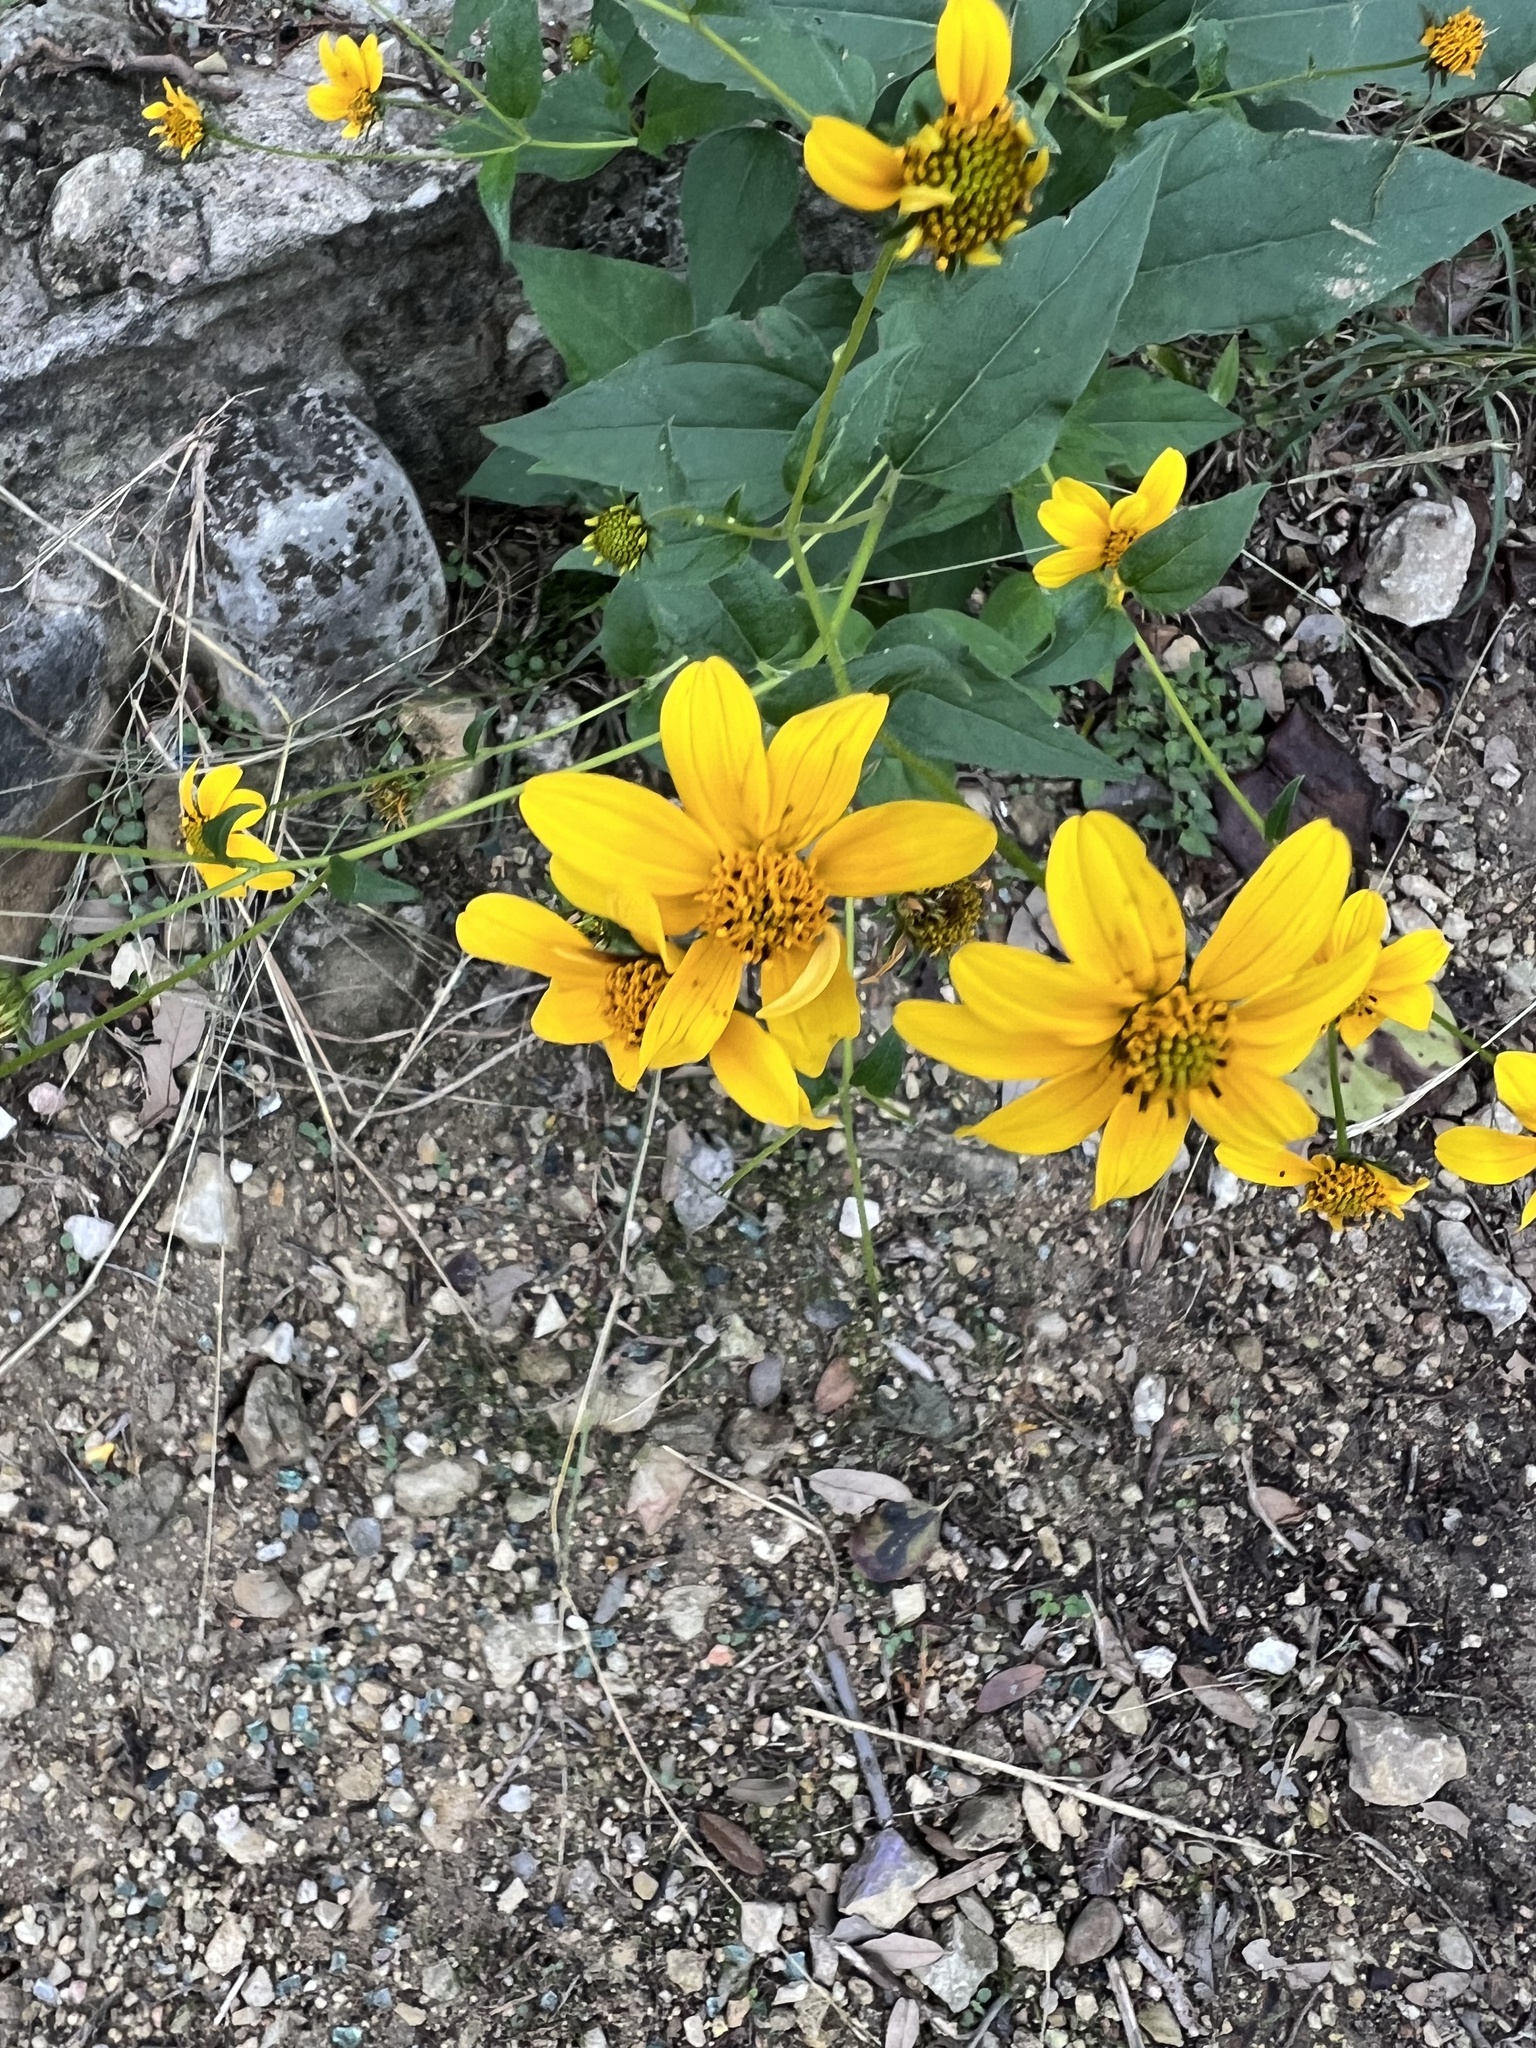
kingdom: Plantae
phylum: Tracheophyta
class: Magnoliopsida
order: Asterales
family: Asteraceae
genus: Viguiera
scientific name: Viguiera dentata
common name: Toothleaf
